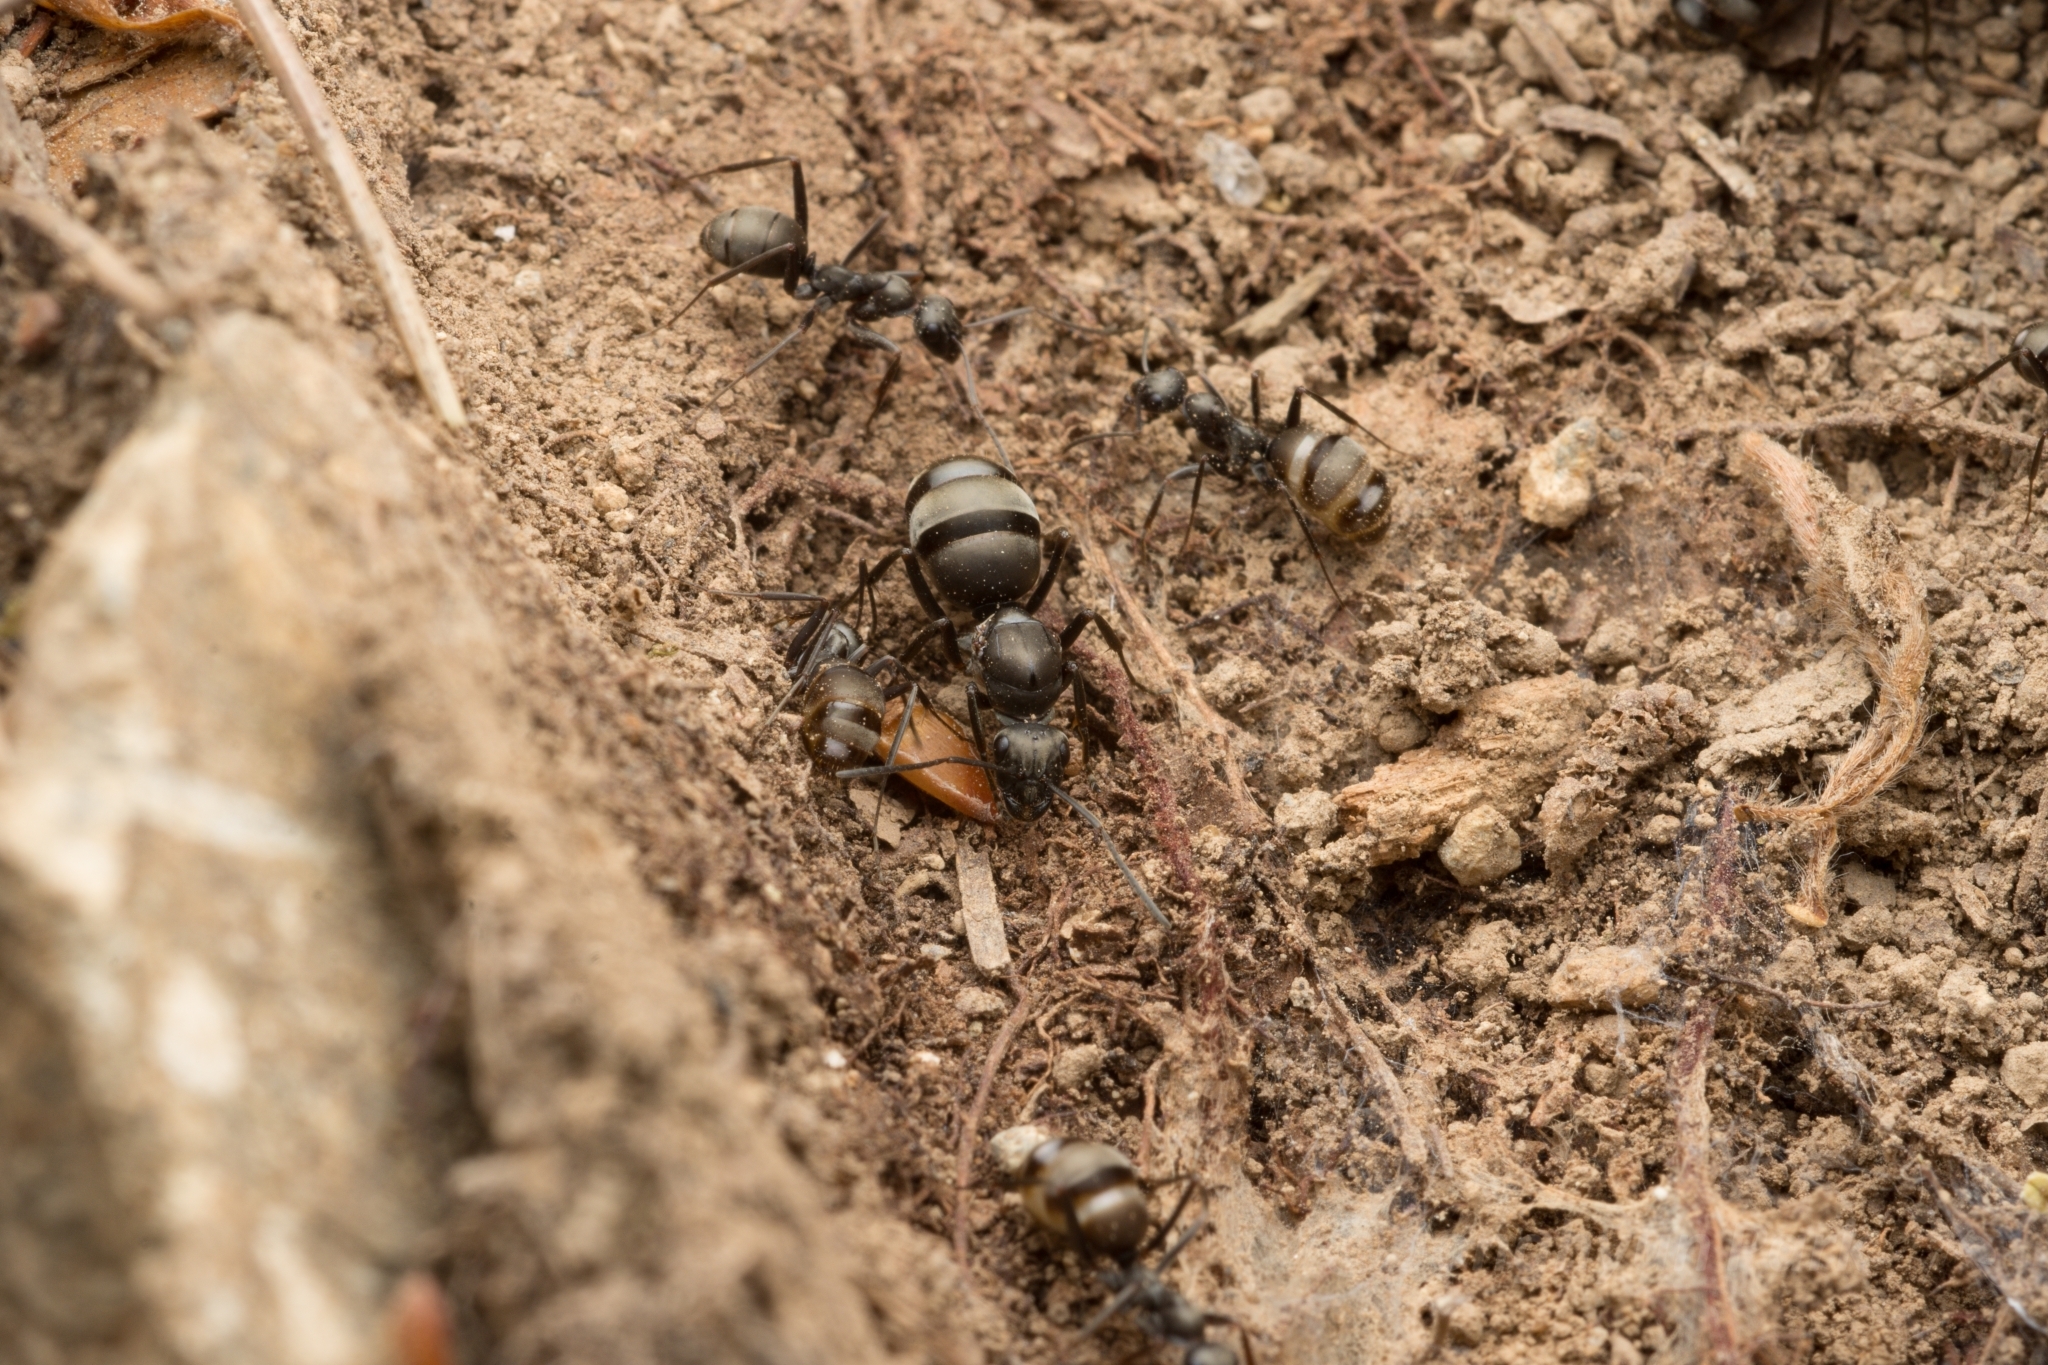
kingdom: Animalia
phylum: Arthropoda
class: Insecta
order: Hymenoptera
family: Formicidae
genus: Formica
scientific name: Formica hayashi
